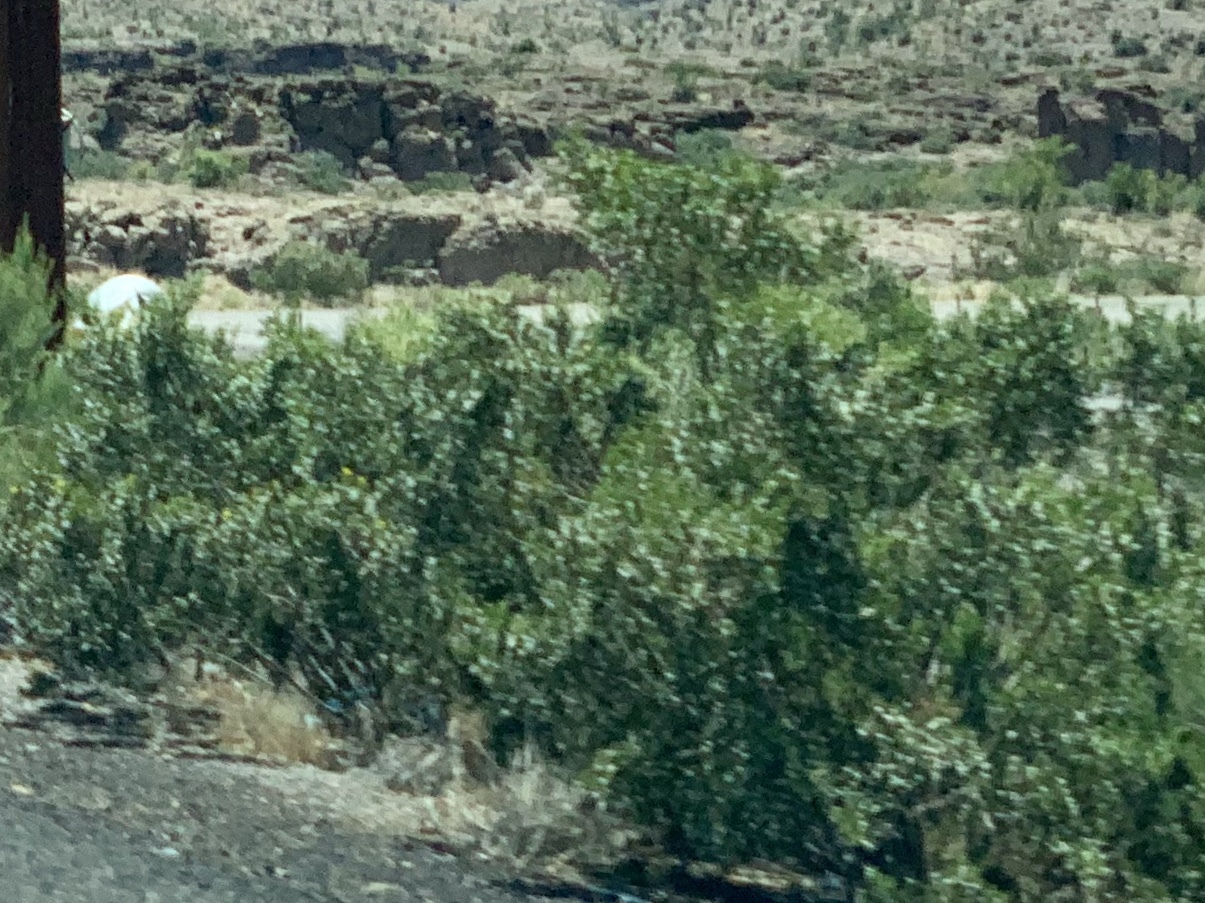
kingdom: Plantae
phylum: Tracheophyta
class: Magnoliopsida
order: Zygophyllales
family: Zygophyllaceae
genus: Larrea
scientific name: Larrea tridentata
